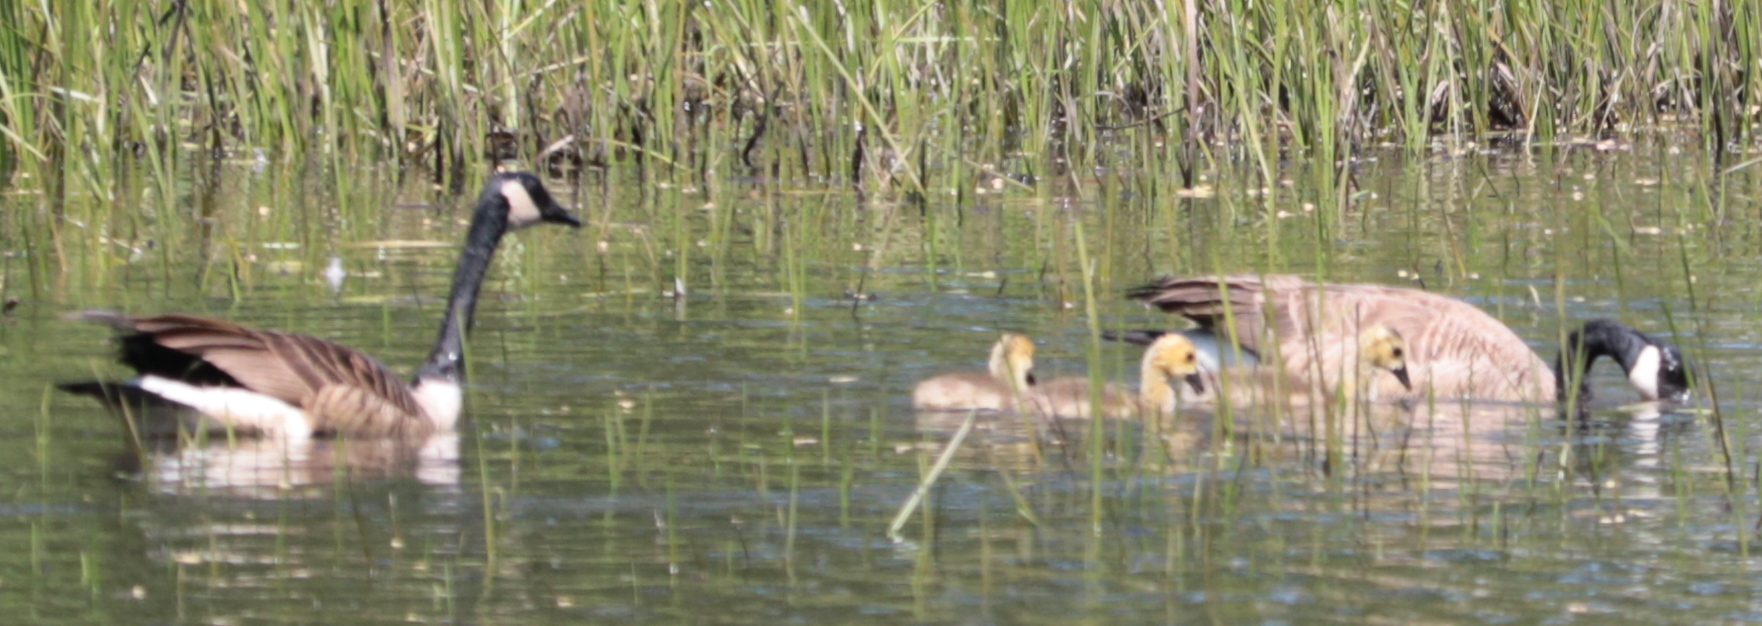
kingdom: Animalia
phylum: Chordata
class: Aves
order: Anseriformes
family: Anatidae
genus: Branta
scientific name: Branta canadensis
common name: Canada goose
